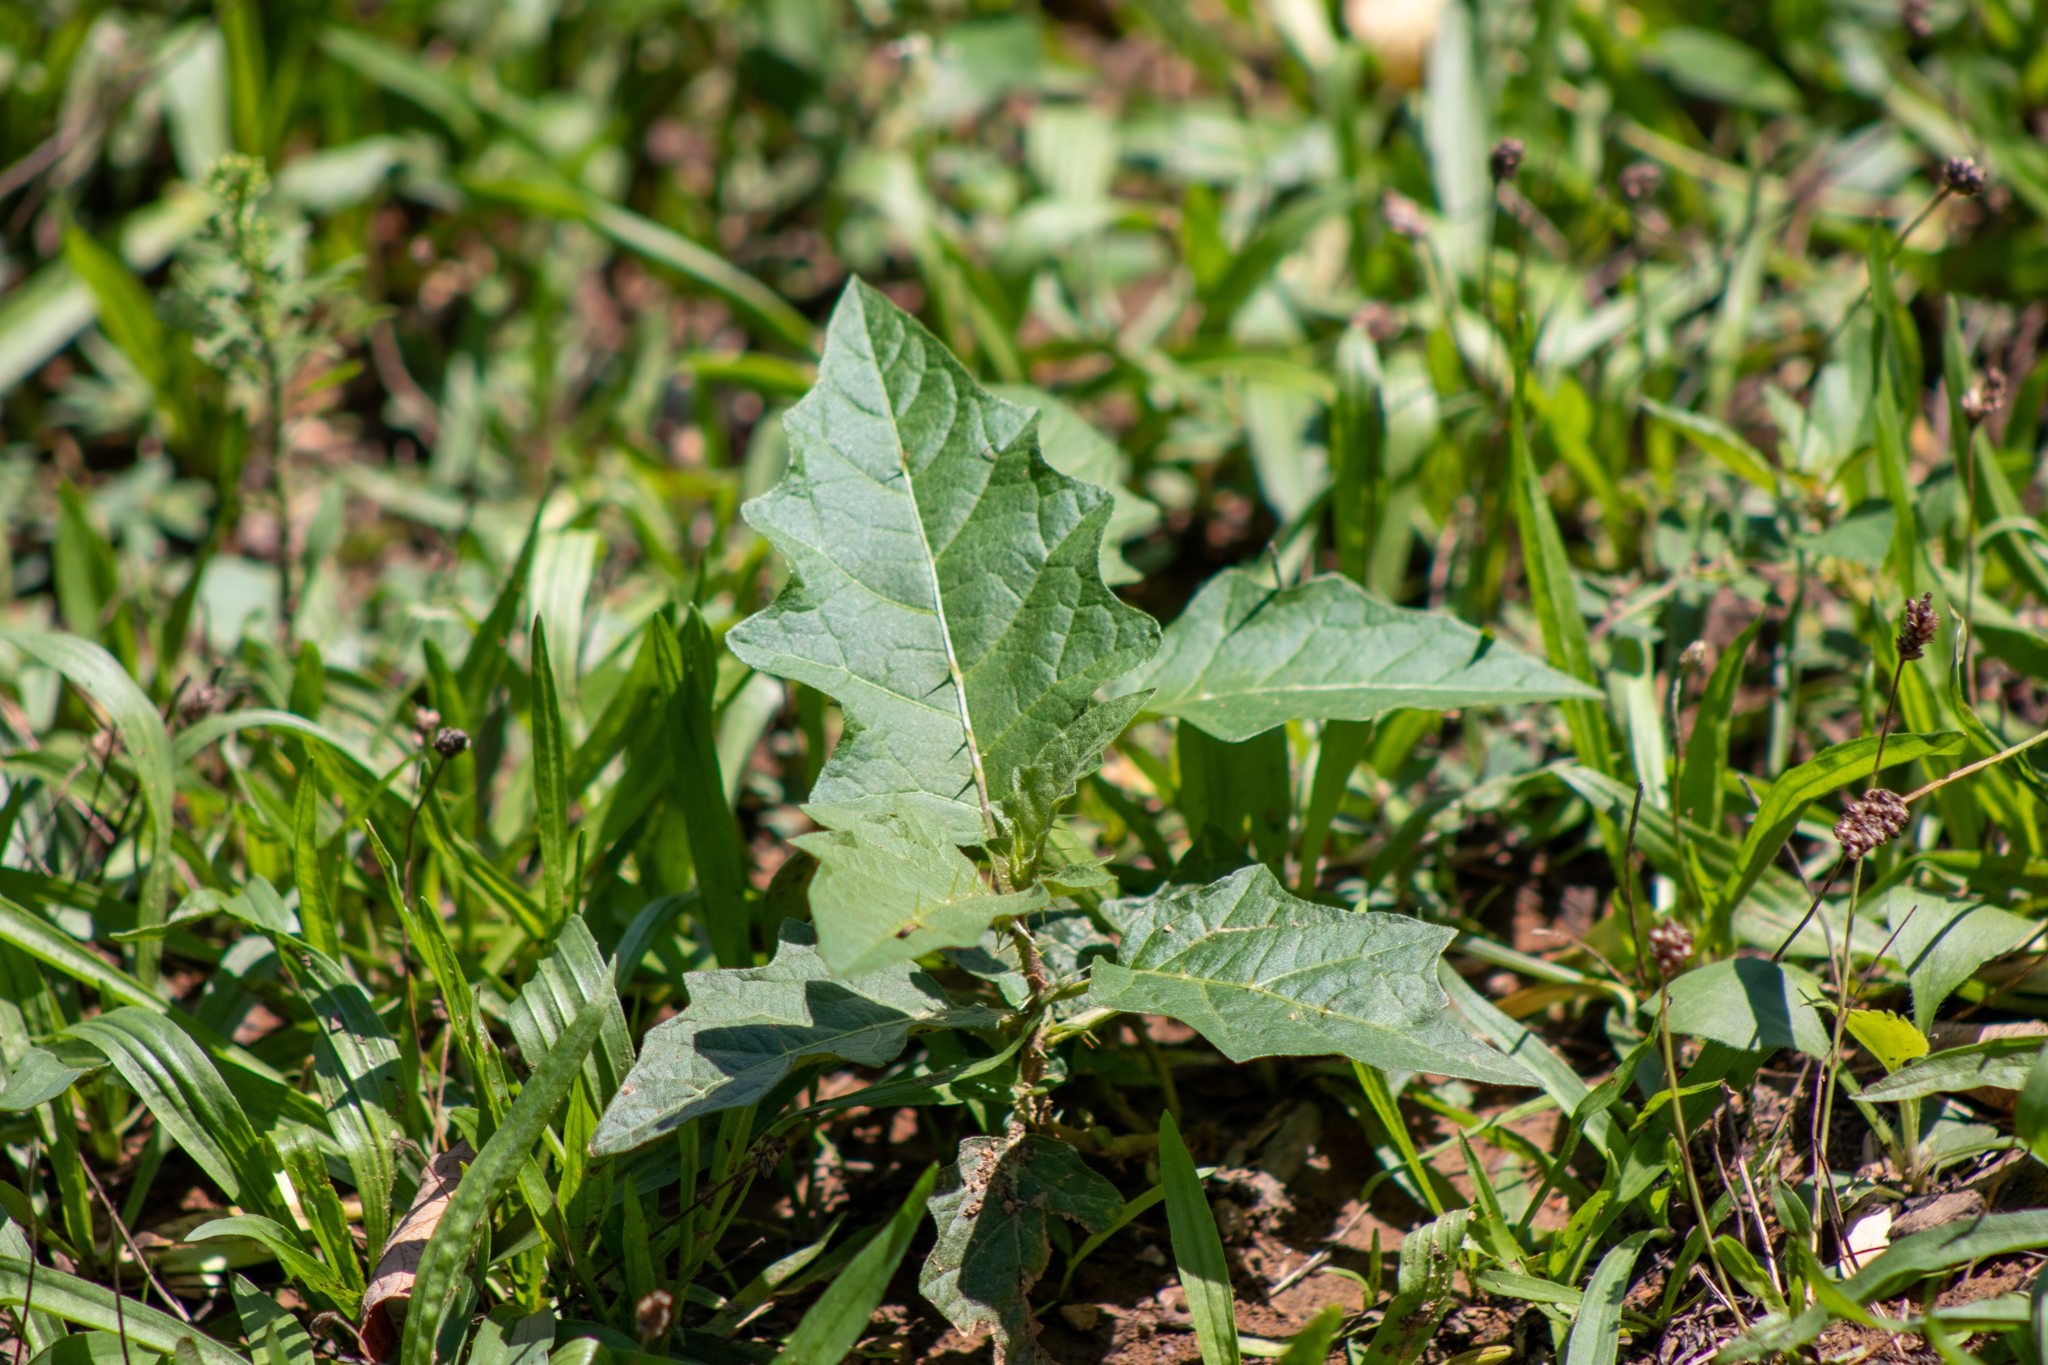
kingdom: Plantae
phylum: Tracheophyta
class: Magnoliopsida
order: Solanales
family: Solanaceae
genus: Solanum
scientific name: Solanum carolinense
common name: Horse-nettle
